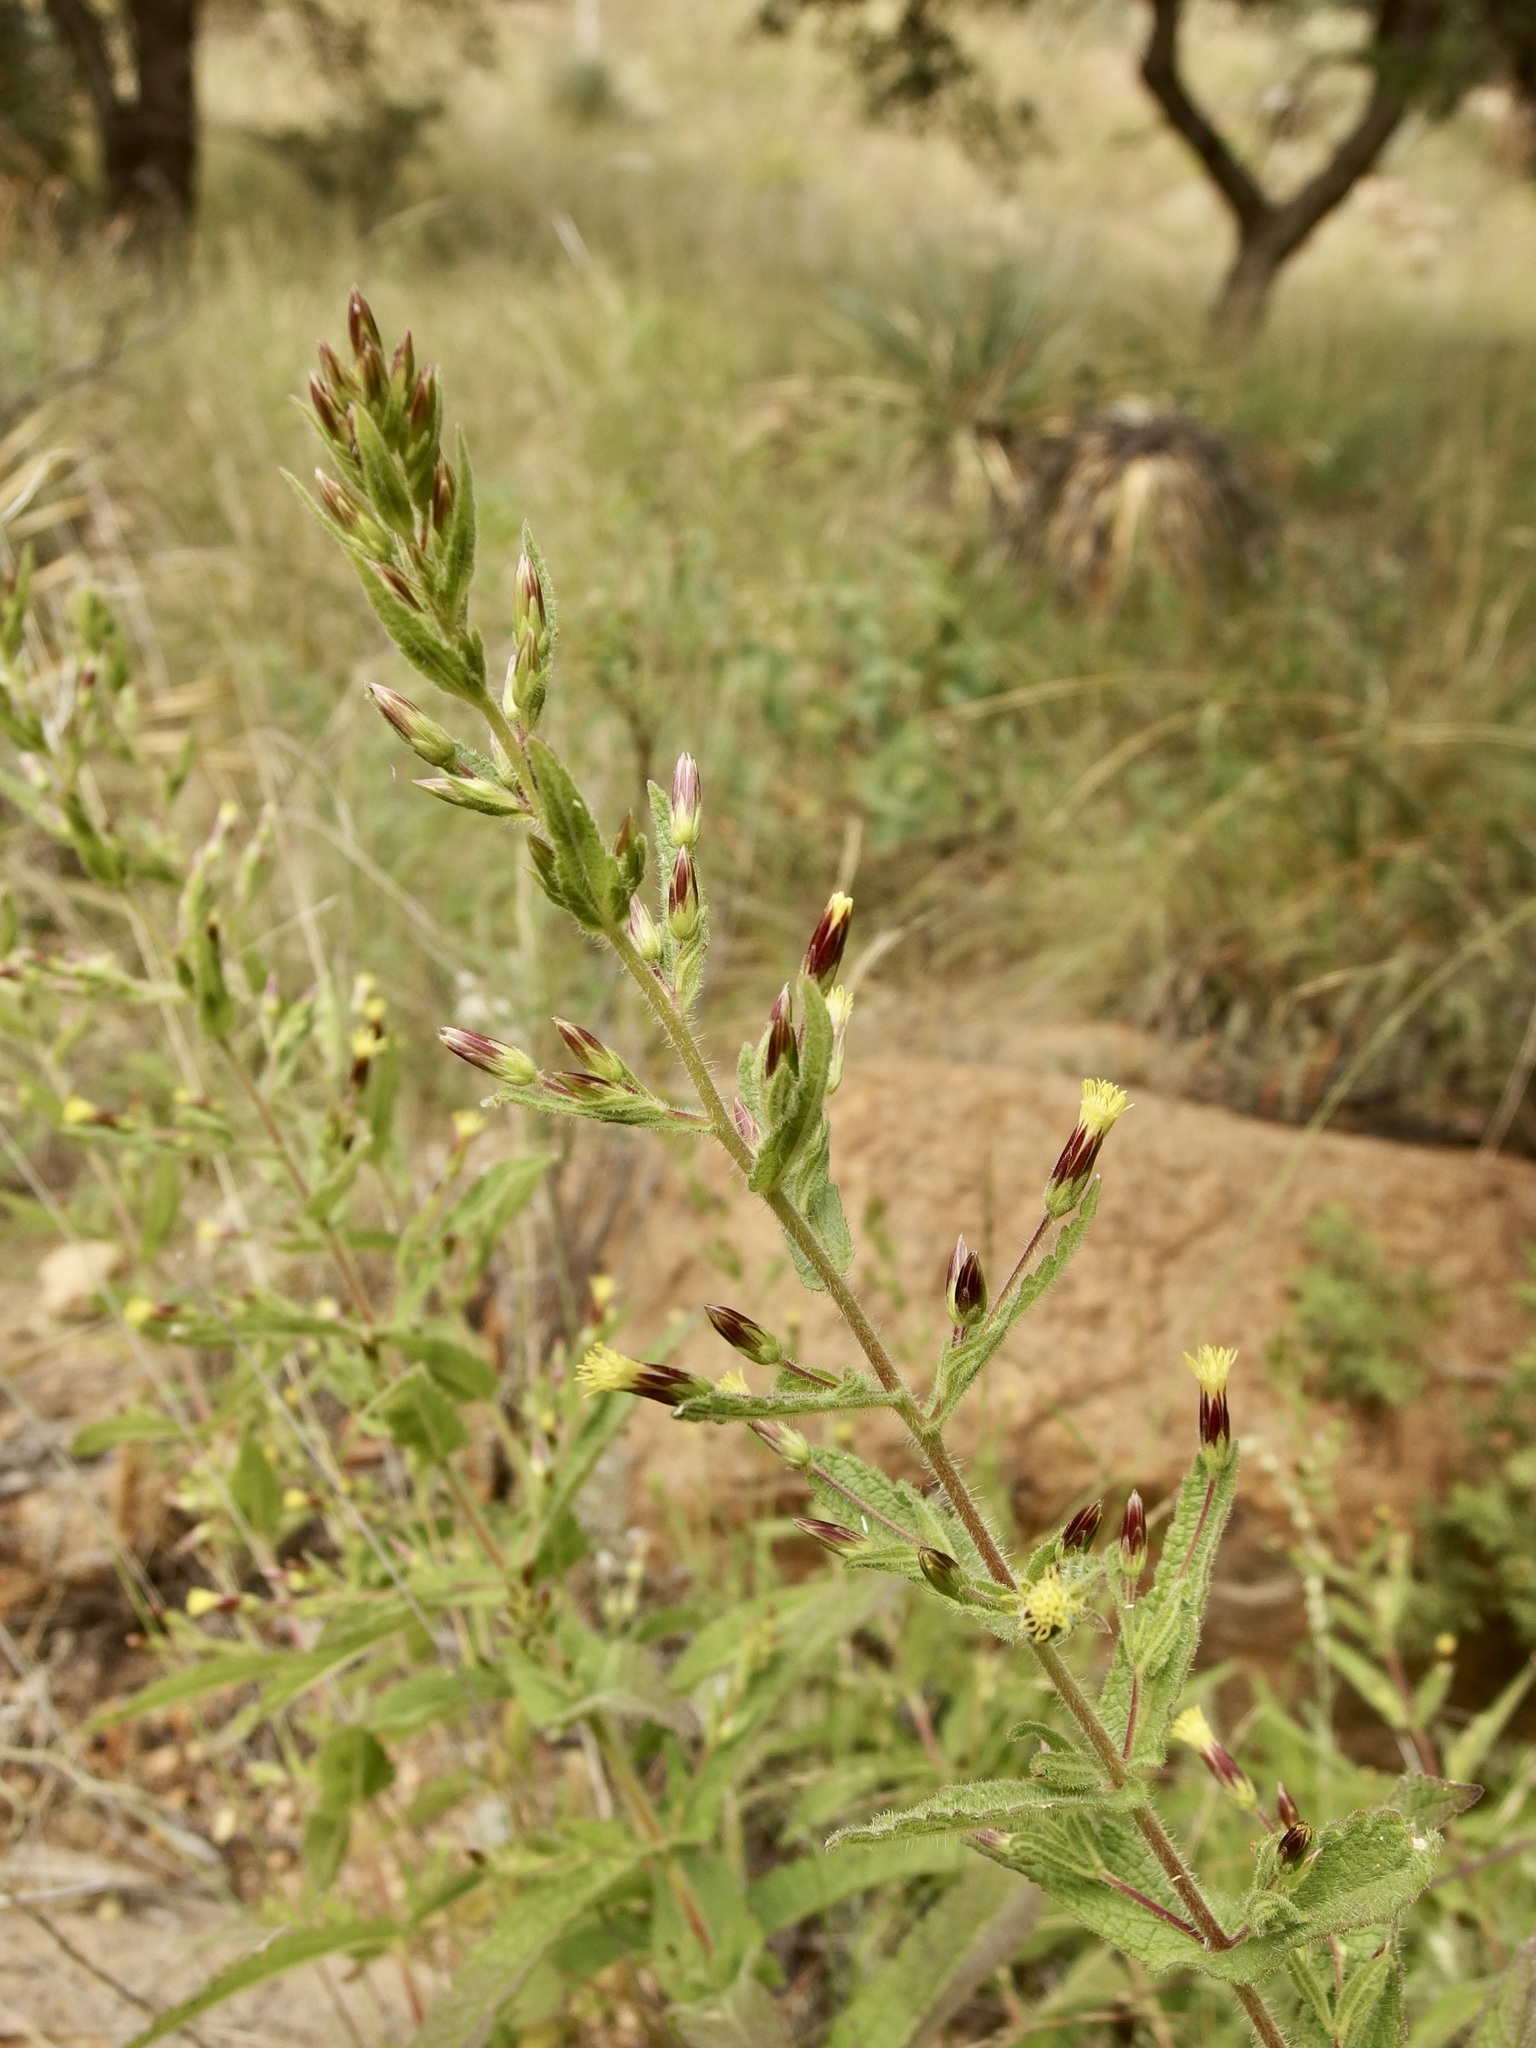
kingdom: Plantae
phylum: Tracheophyta
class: Magnoliopsida
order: Asterales
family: Asteraceae
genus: Brickellia
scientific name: Brickellia amplexicaulis
